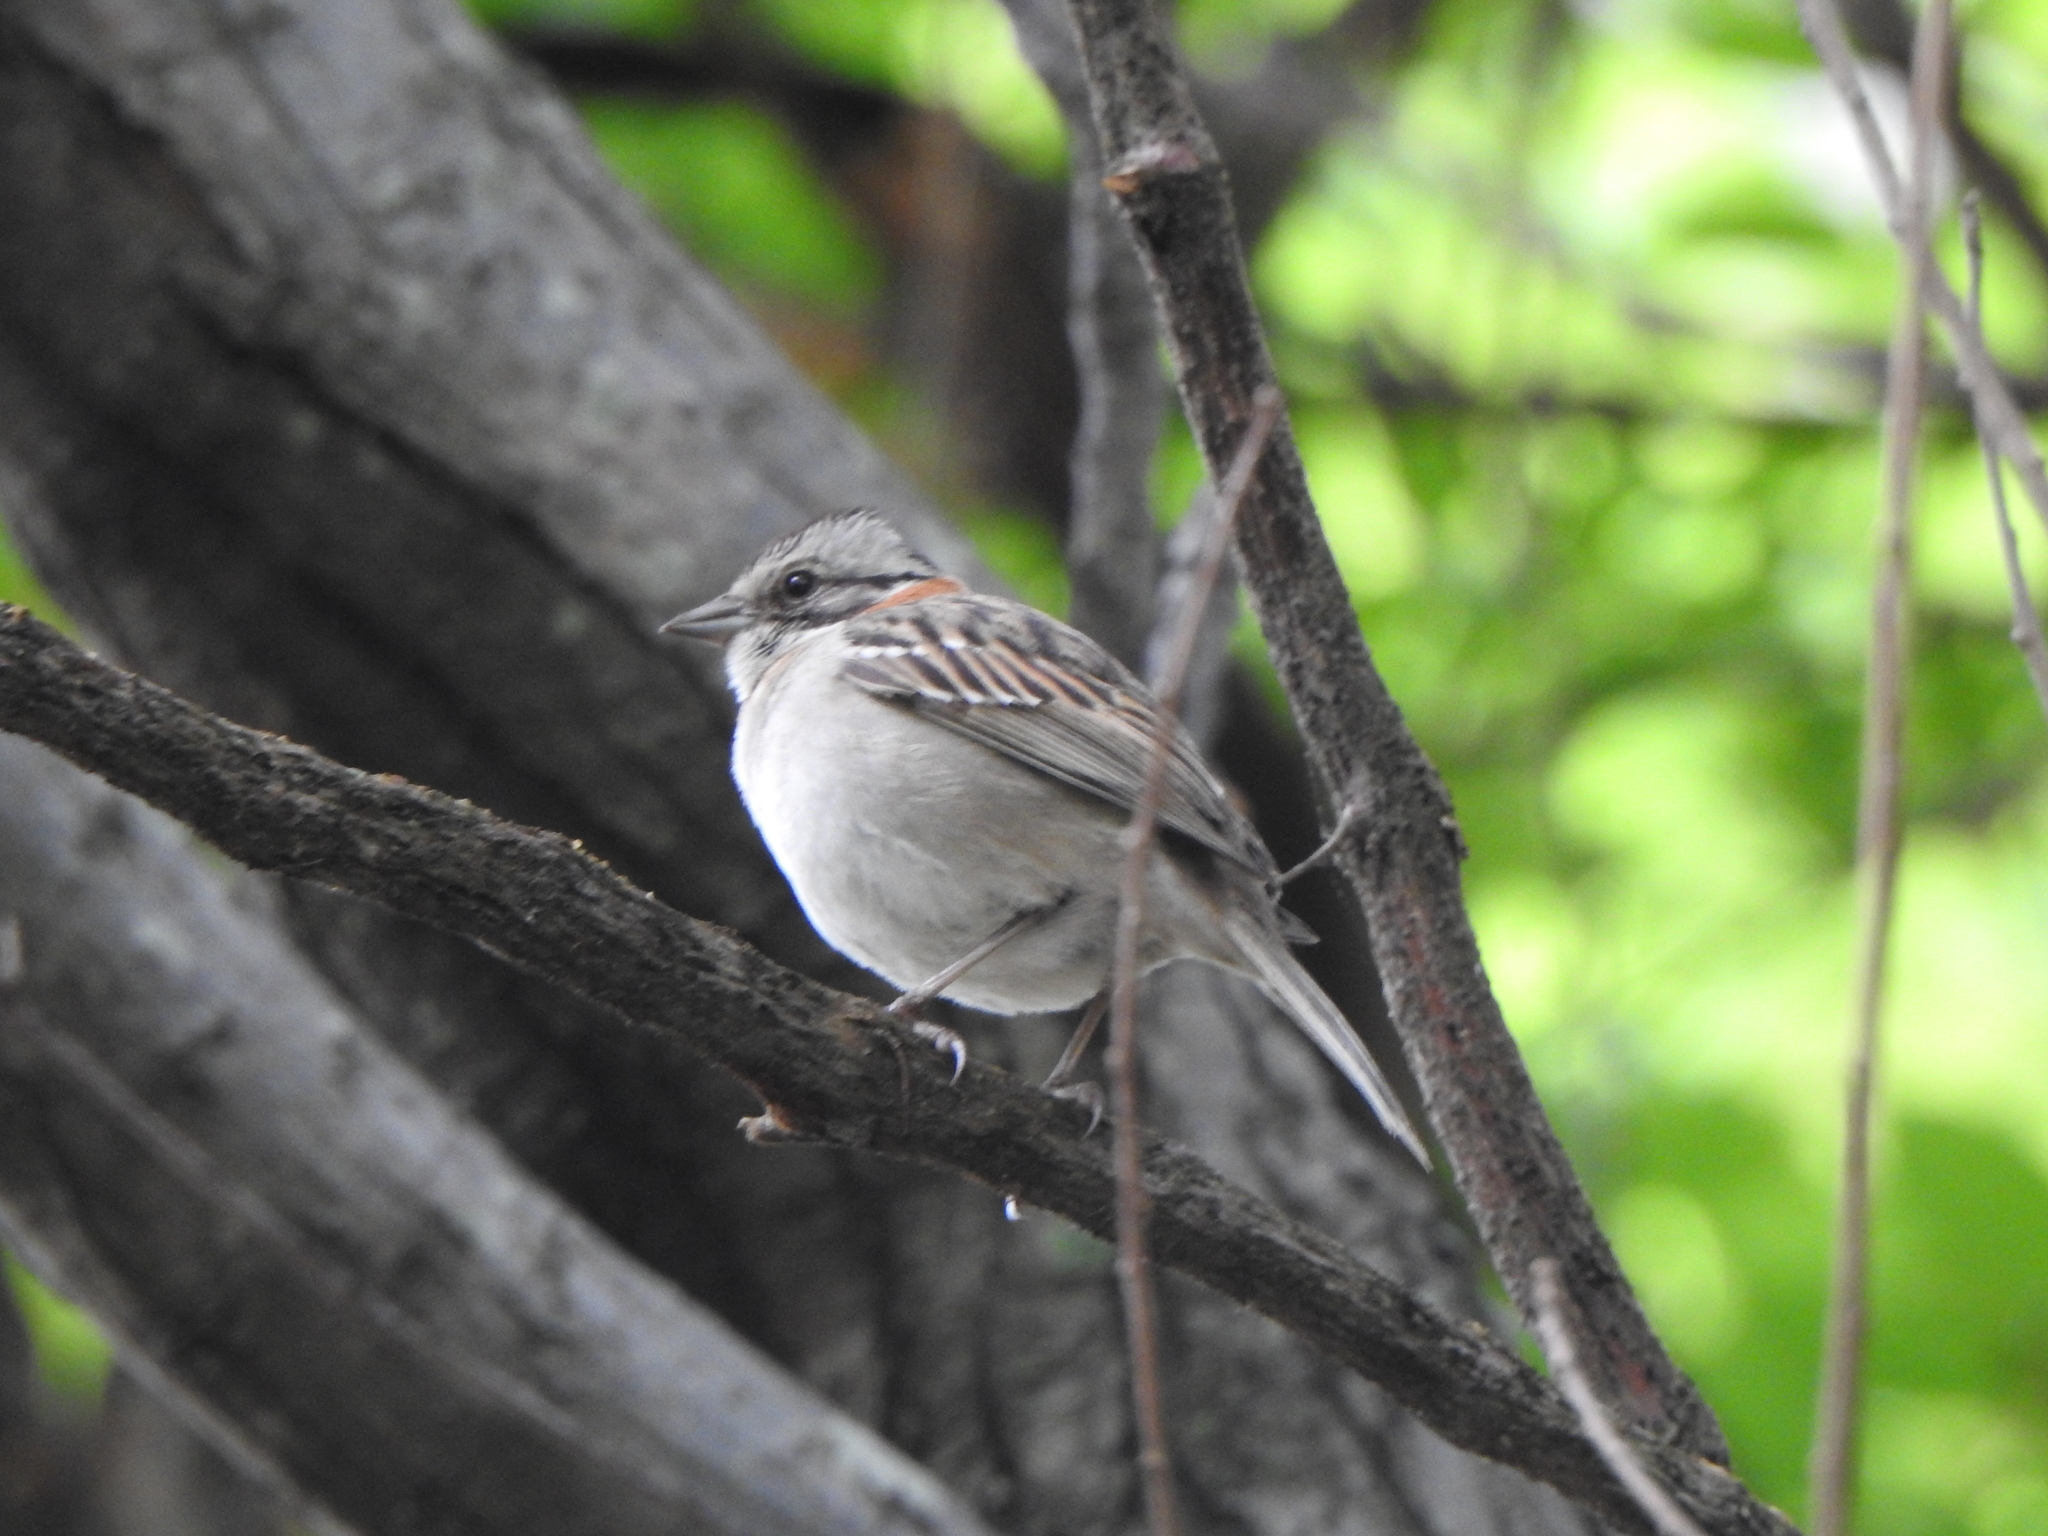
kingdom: Animalia
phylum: Chordata
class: Aves
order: Passeriformes
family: Passerellidae
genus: Zonotrichia
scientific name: Zonotrichia capensis
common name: Rufous-collared sparrow
